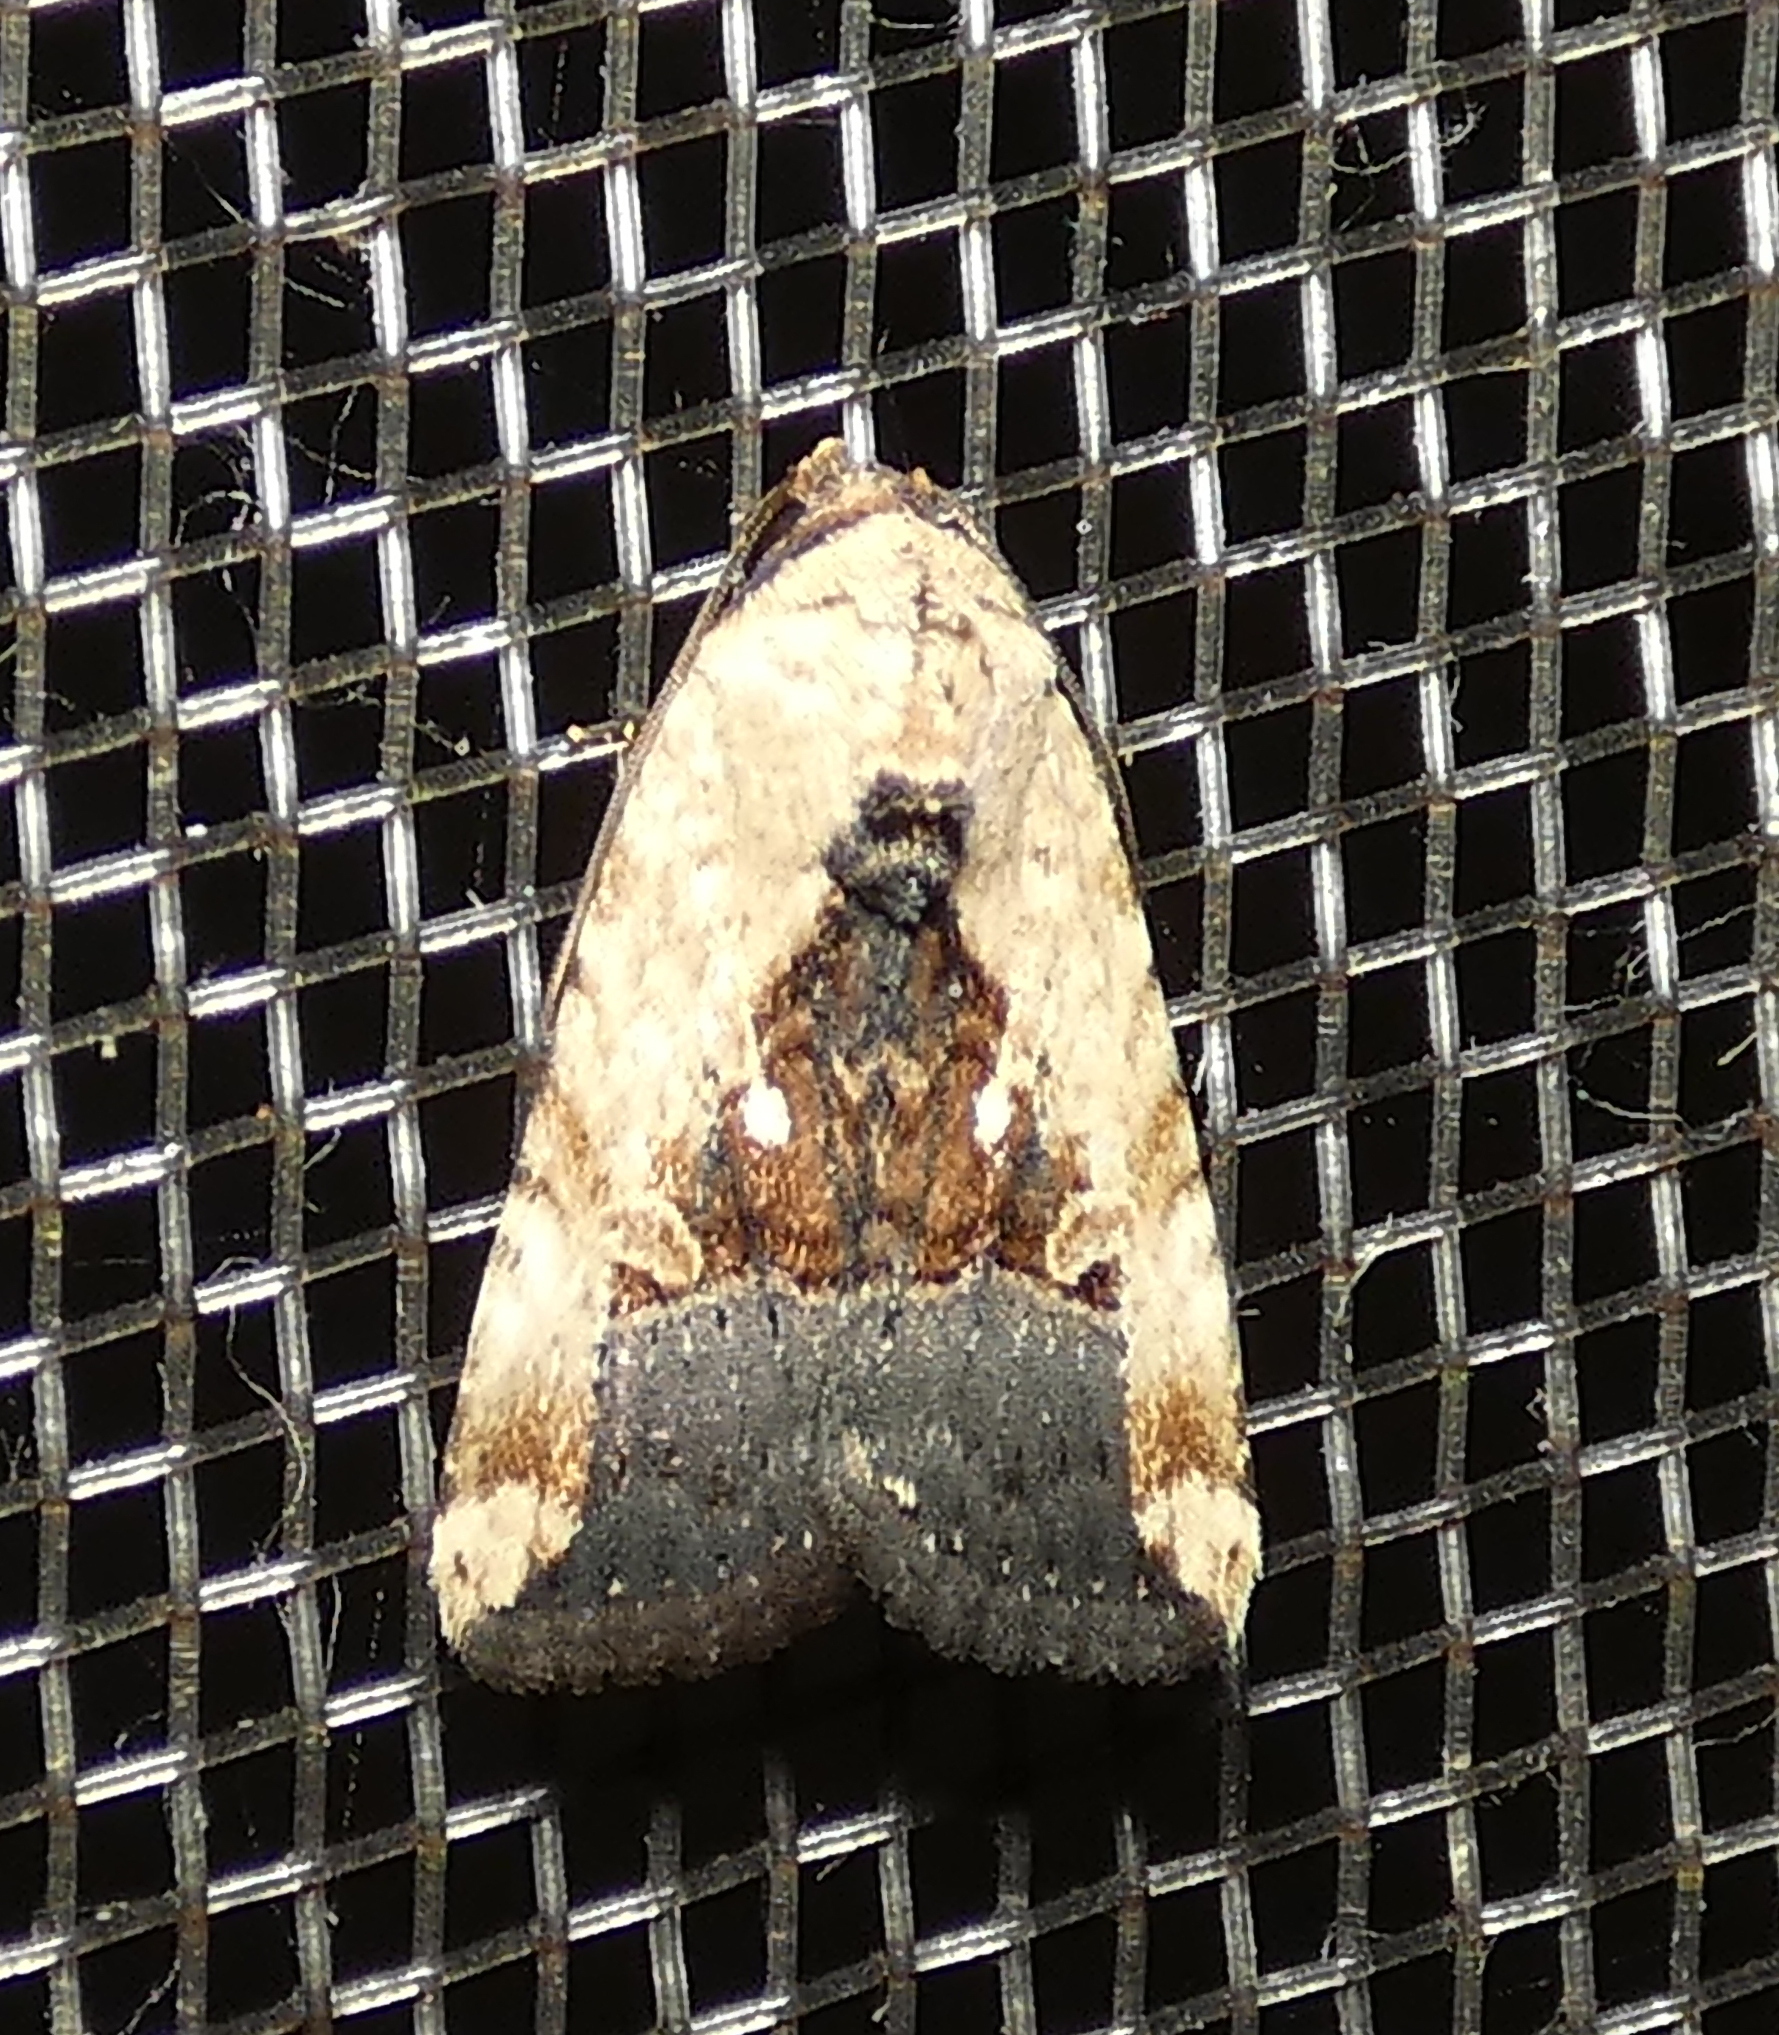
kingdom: Animalia
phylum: Arthropoda
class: Insecta
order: Lepidoptera
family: Noctuidae
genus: Elaphria
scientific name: Elaphria agrotina
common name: Agrotina midget
